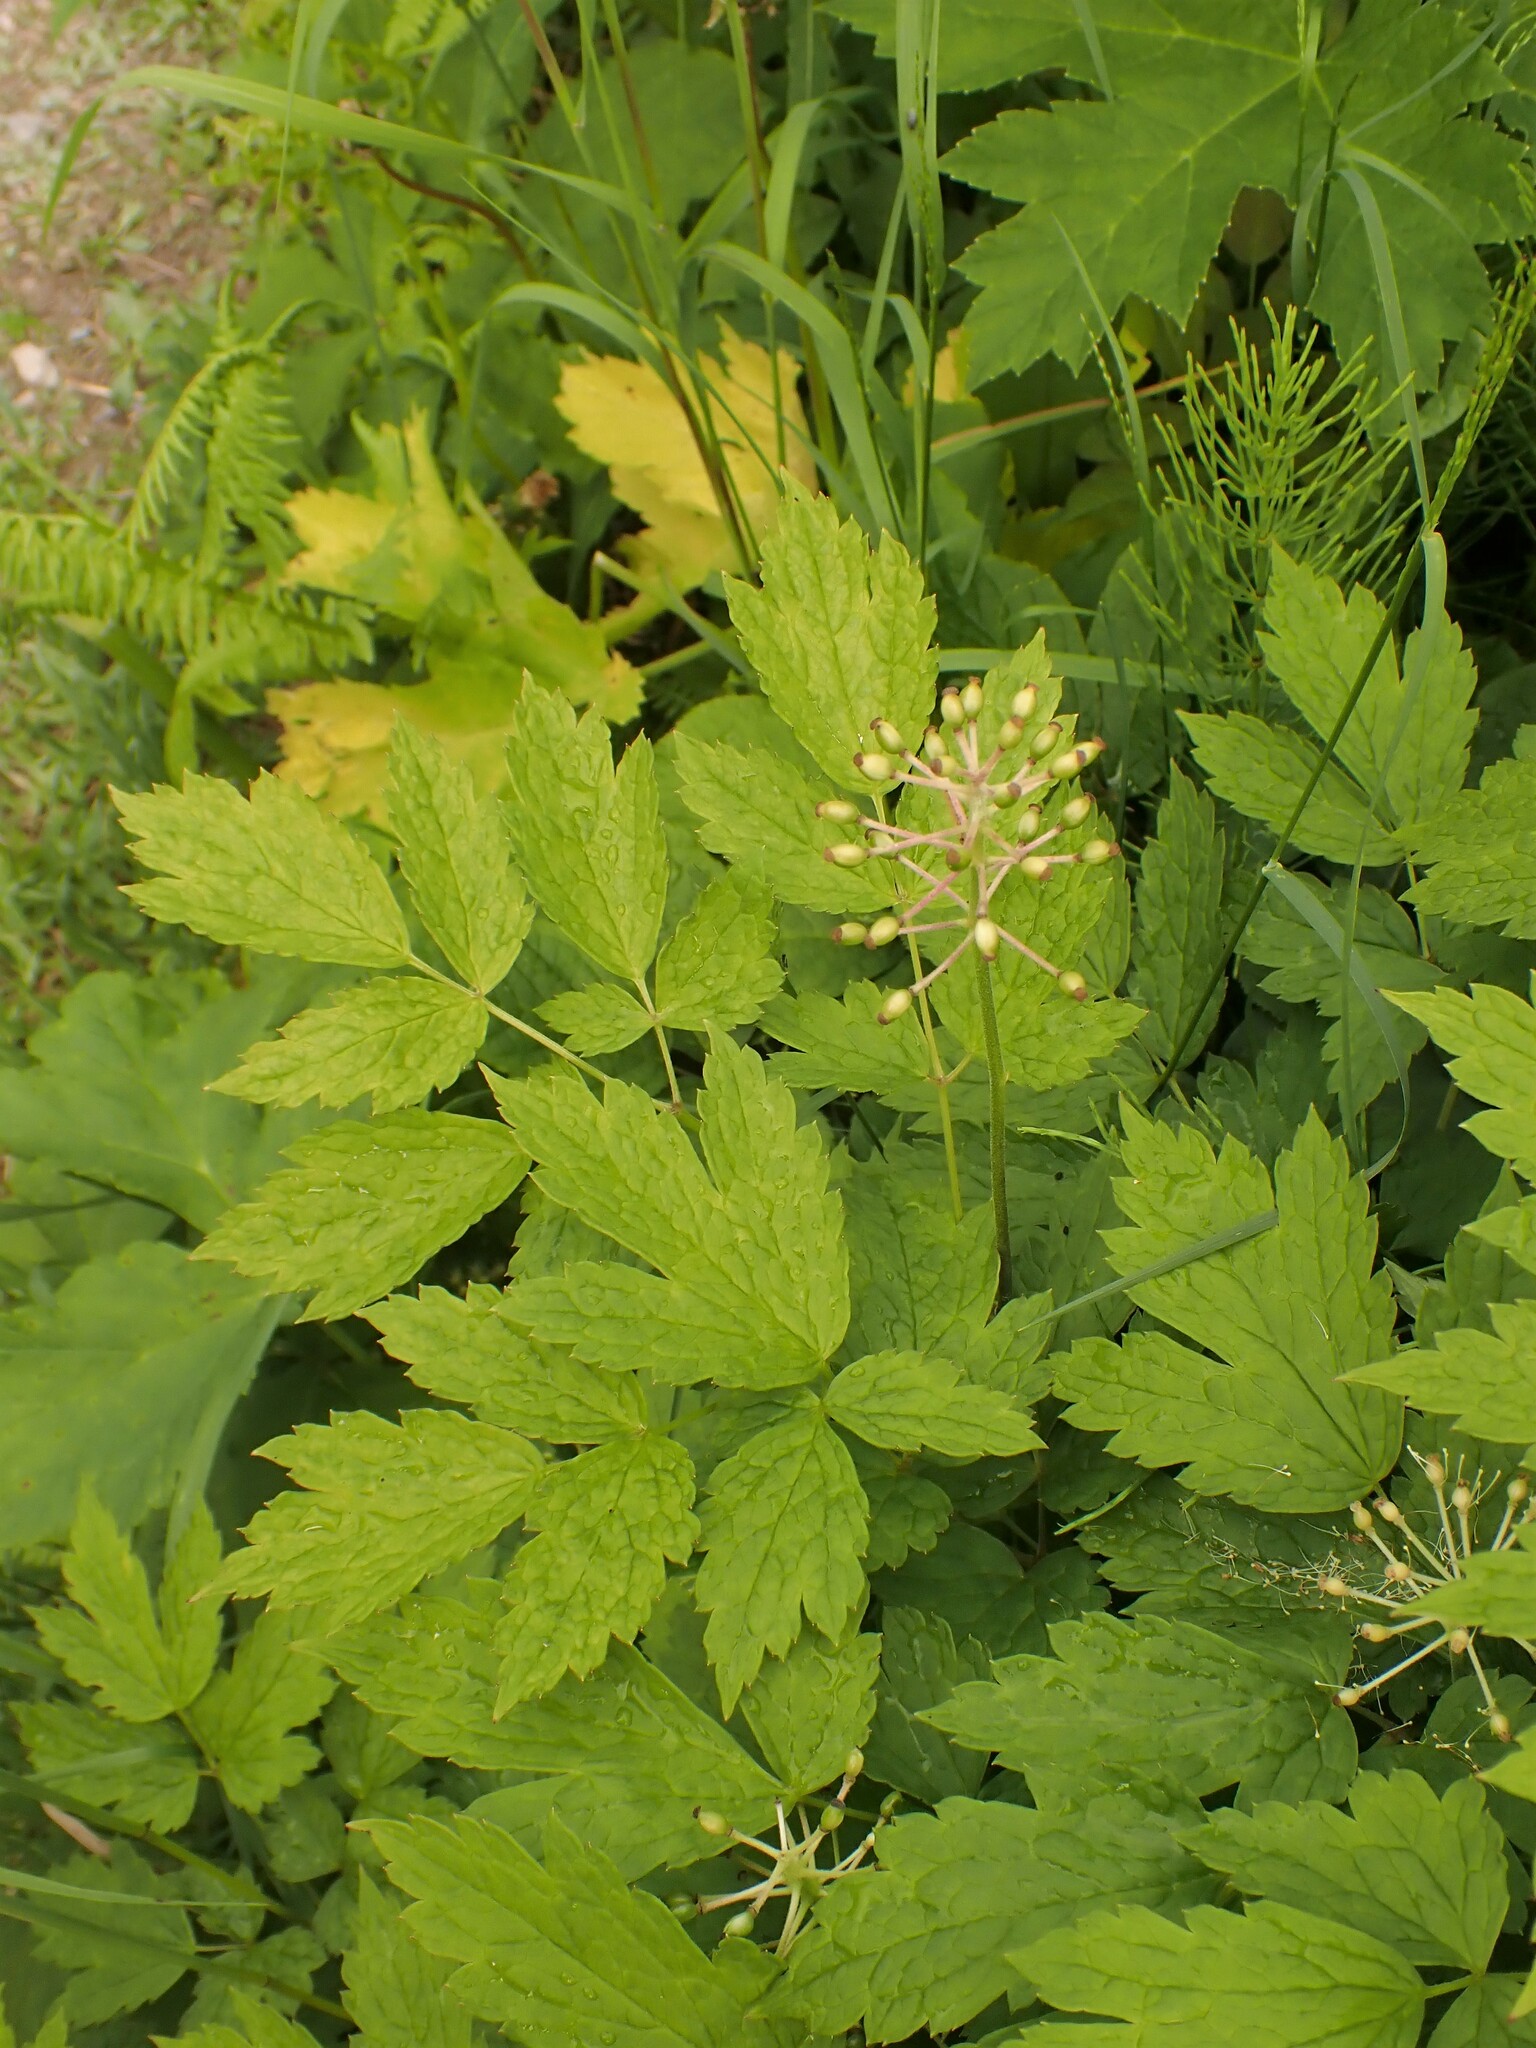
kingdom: Plantae
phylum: Tracheophyta
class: Magnoliopsida
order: Ranunculales
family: Ranunculaceae
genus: Actaea
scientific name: Actaea rubra
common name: Red baneberry
